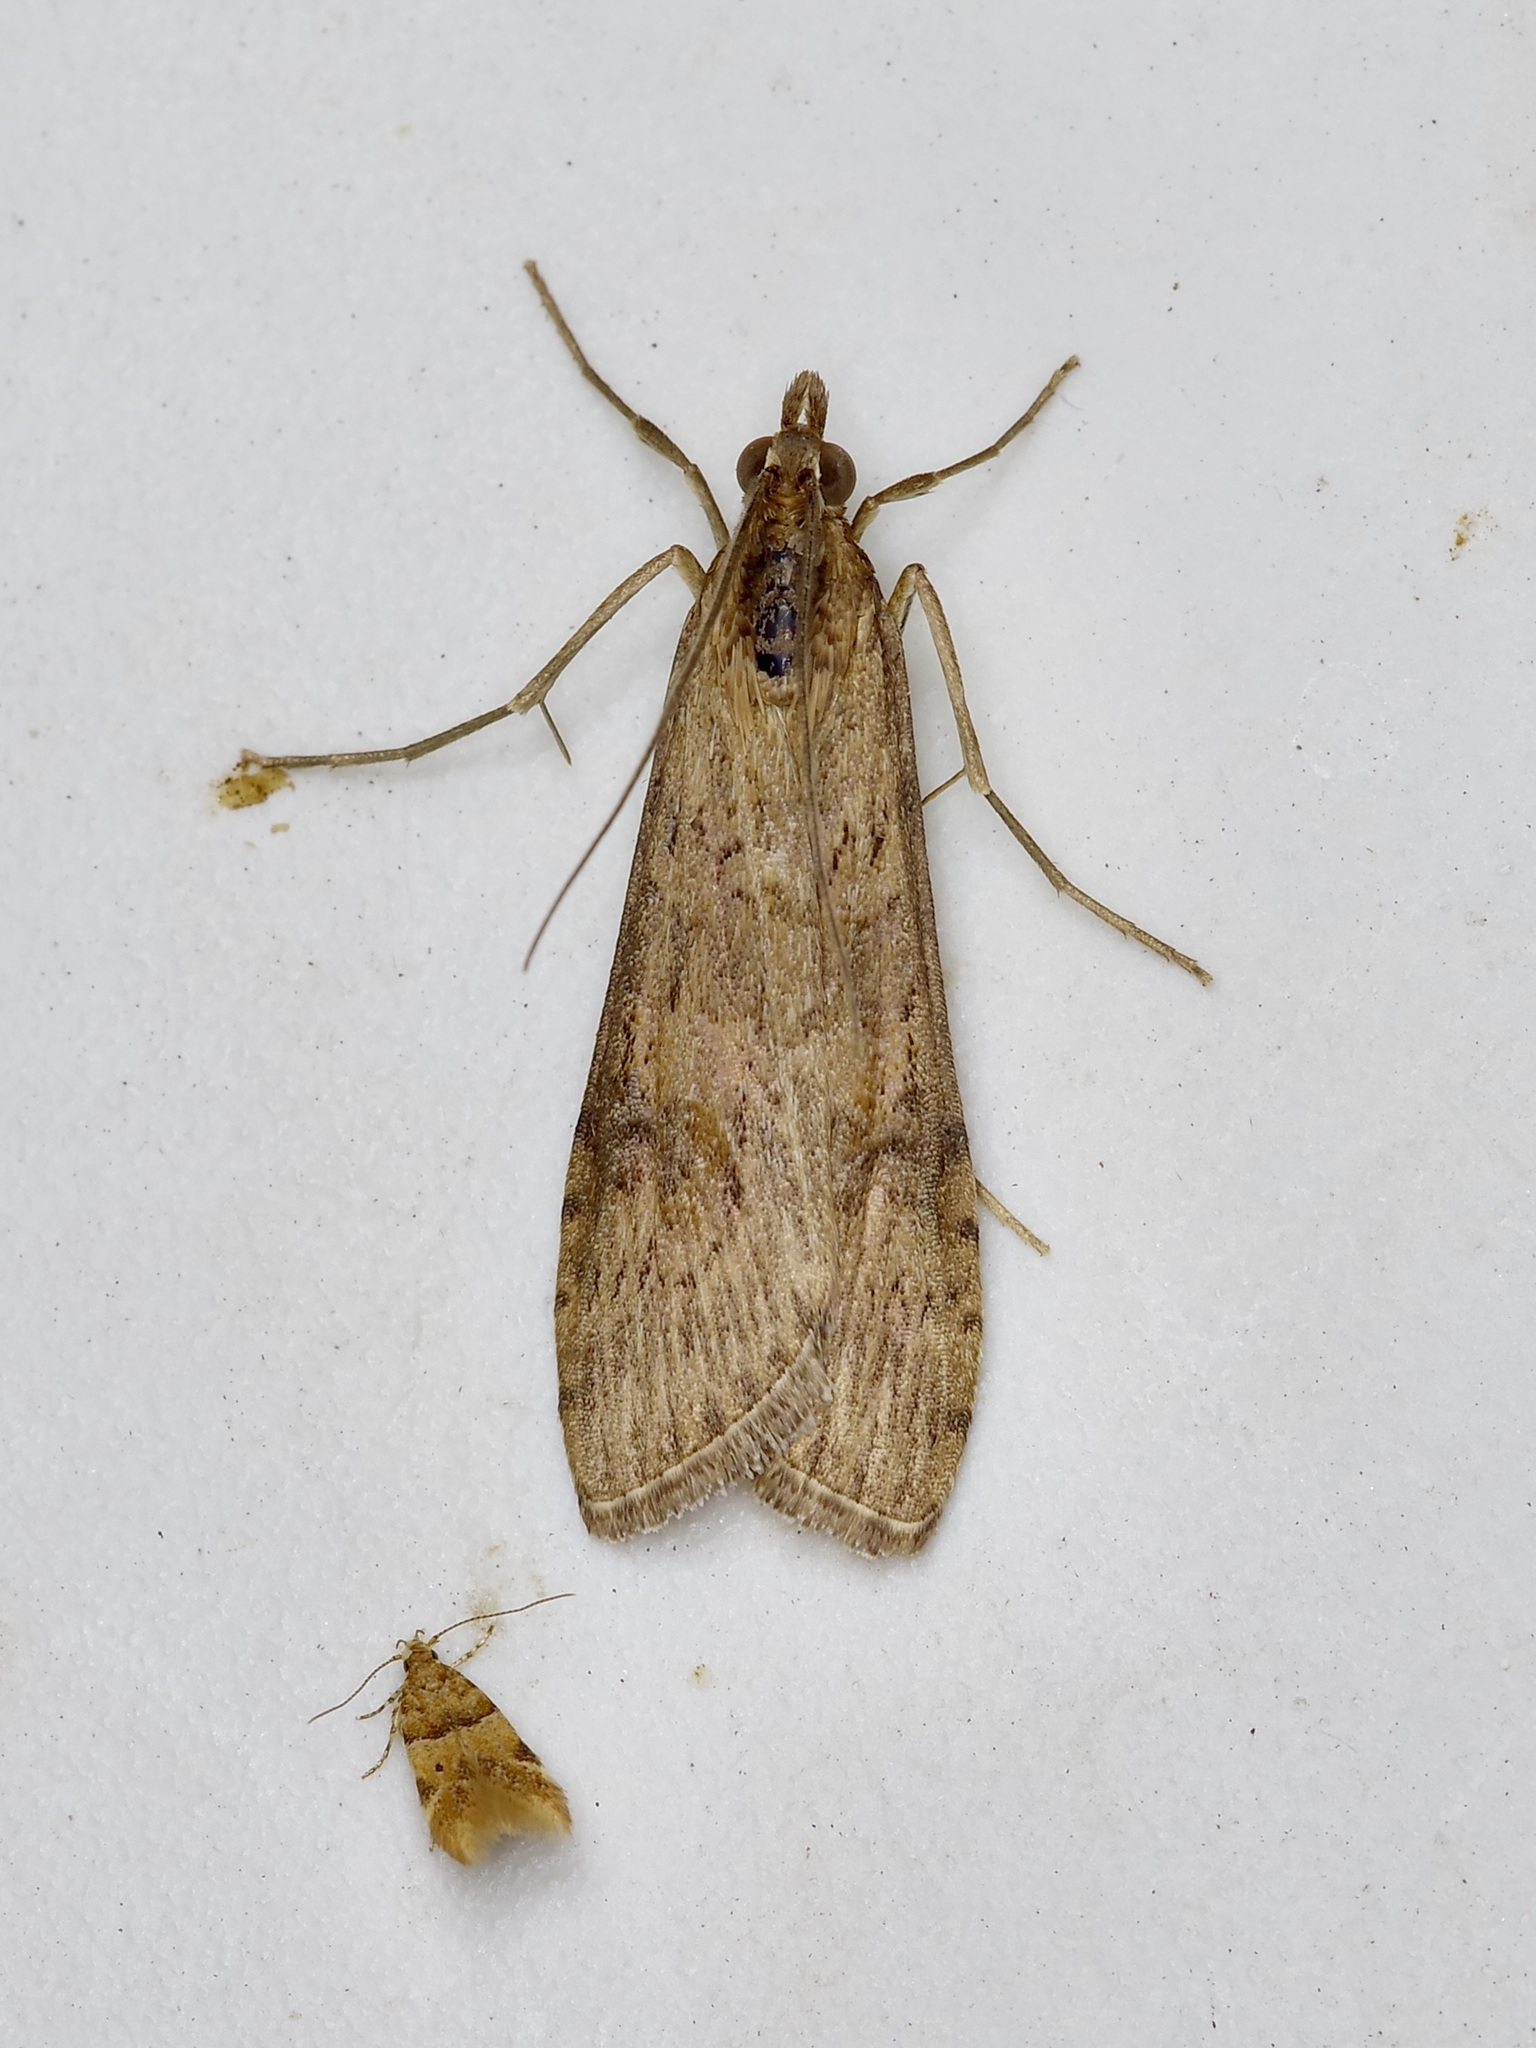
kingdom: Animalia
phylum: Arthropoda
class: Insecta
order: Lepidoptera
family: Crambidae
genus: Nomophila
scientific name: Nomophila nearctica
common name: American rush veneer
